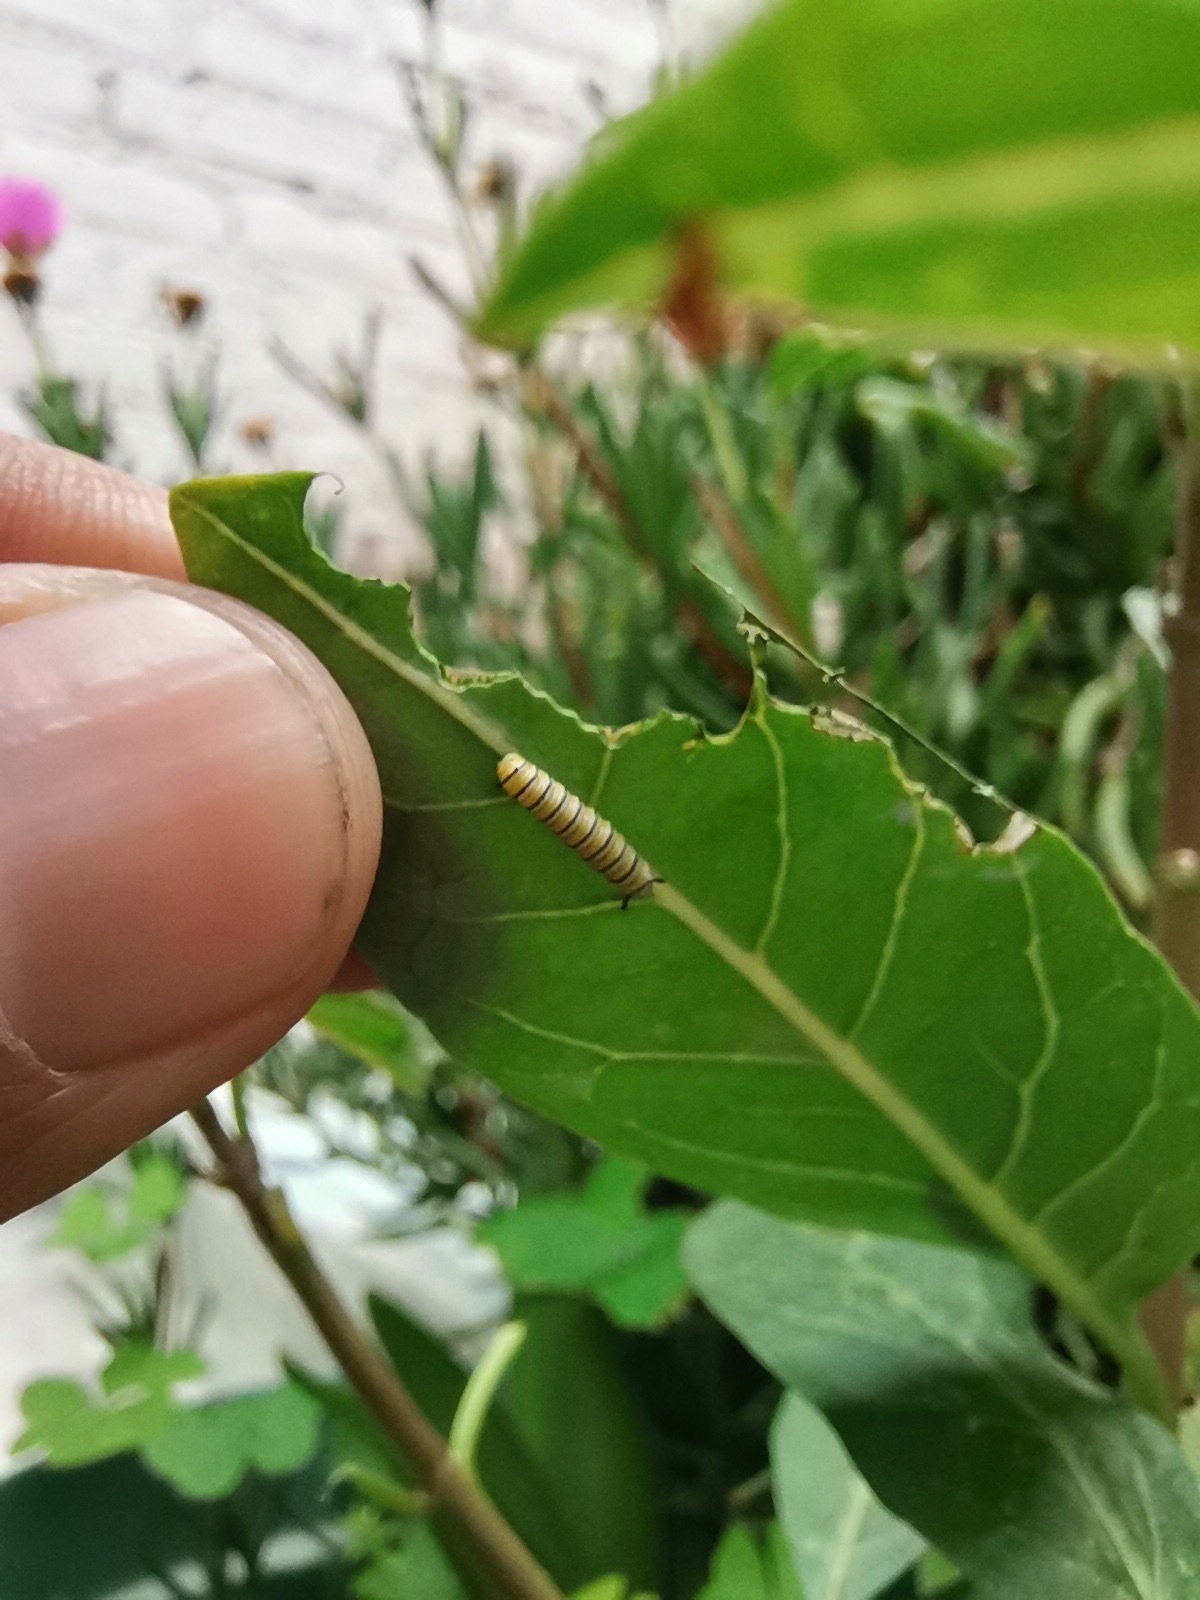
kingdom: Animalia
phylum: Arthropoda
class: Insecta
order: Lepidoptera
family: Nymphalidae
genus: Danaus
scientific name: Danaus plexippus
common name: Monarch
